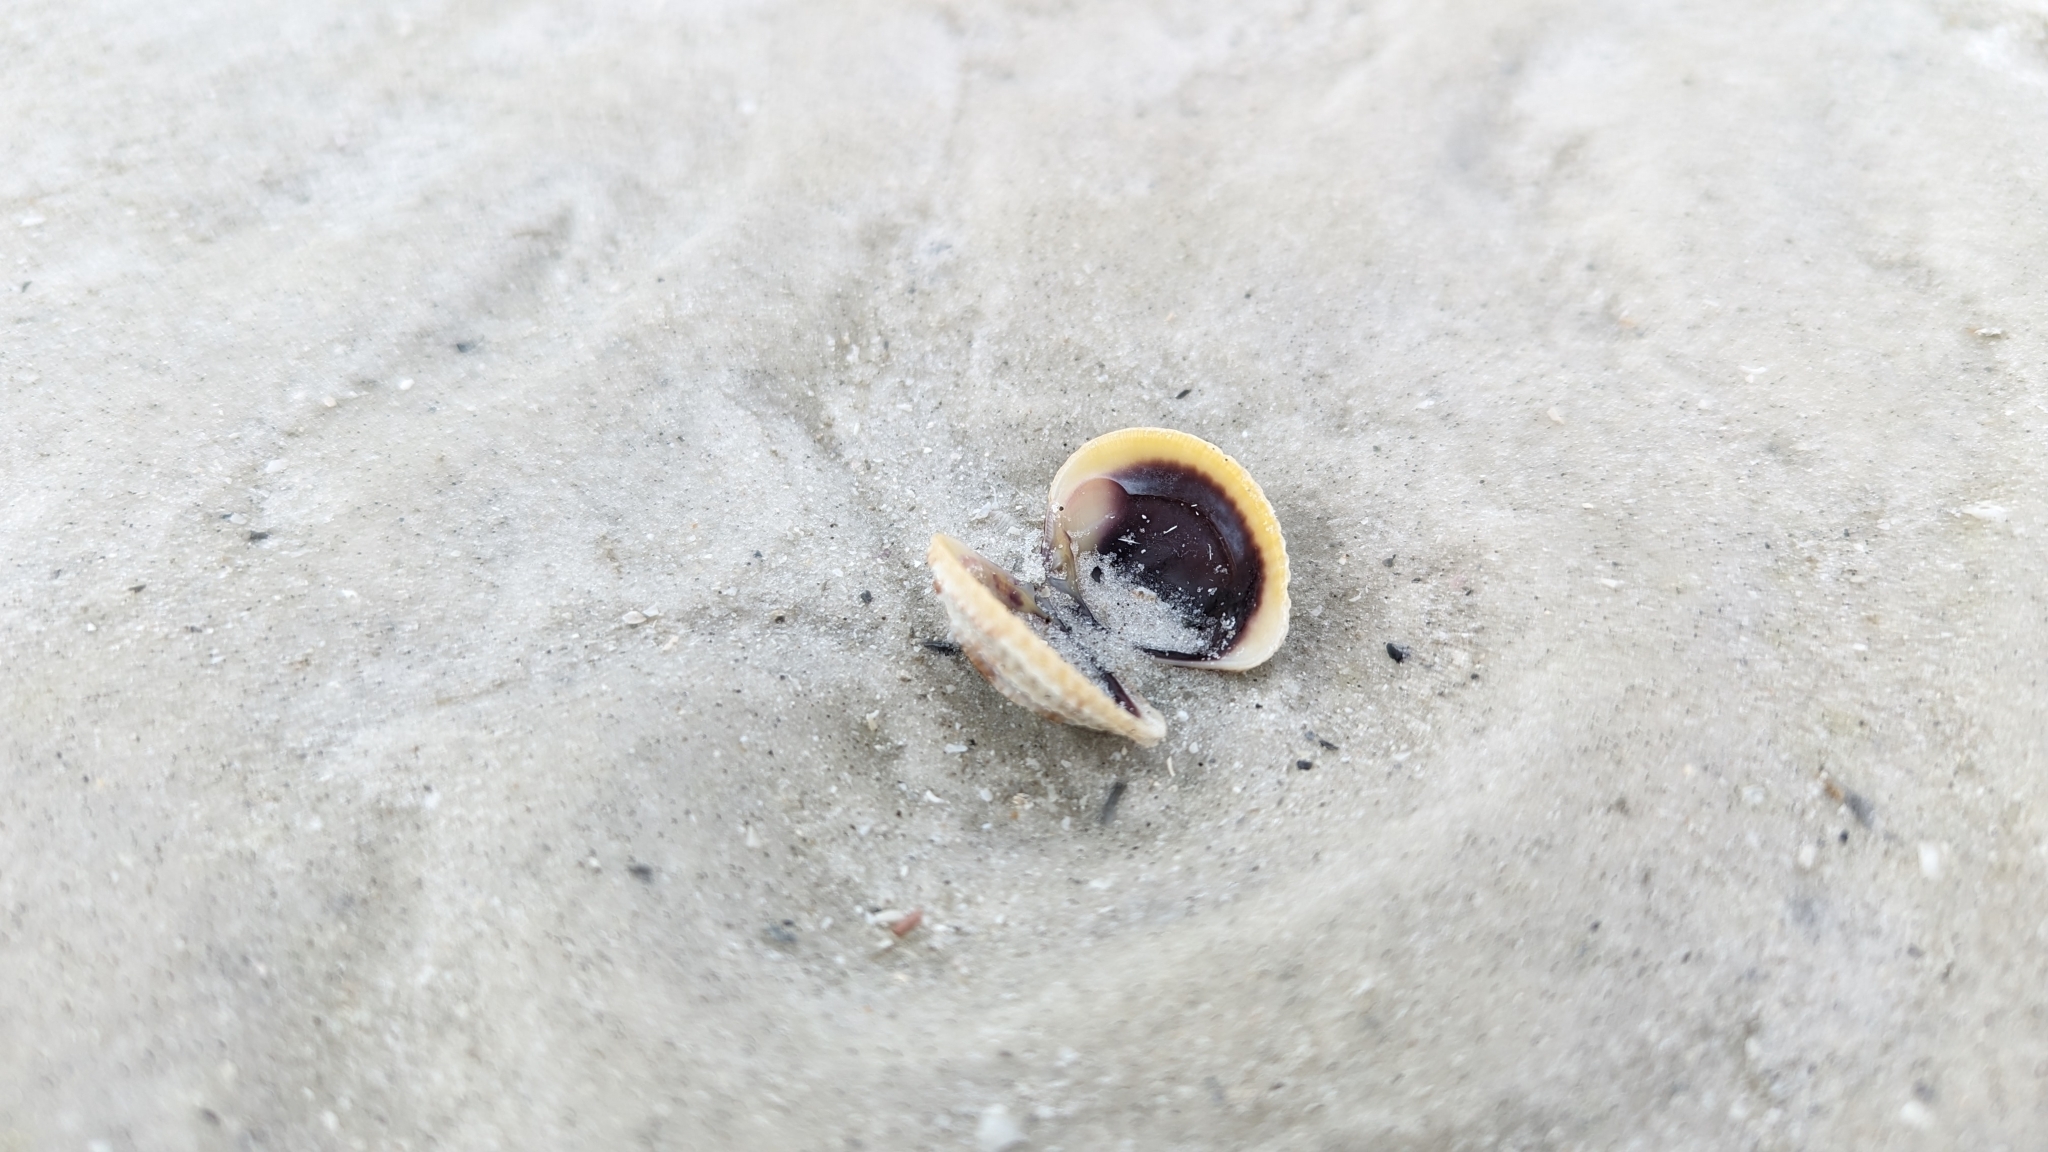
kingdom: Animalia
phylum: Mollusca
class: Bivalvia
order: Venerida
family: Veneridae
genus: Chione
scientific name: Chione elevata
